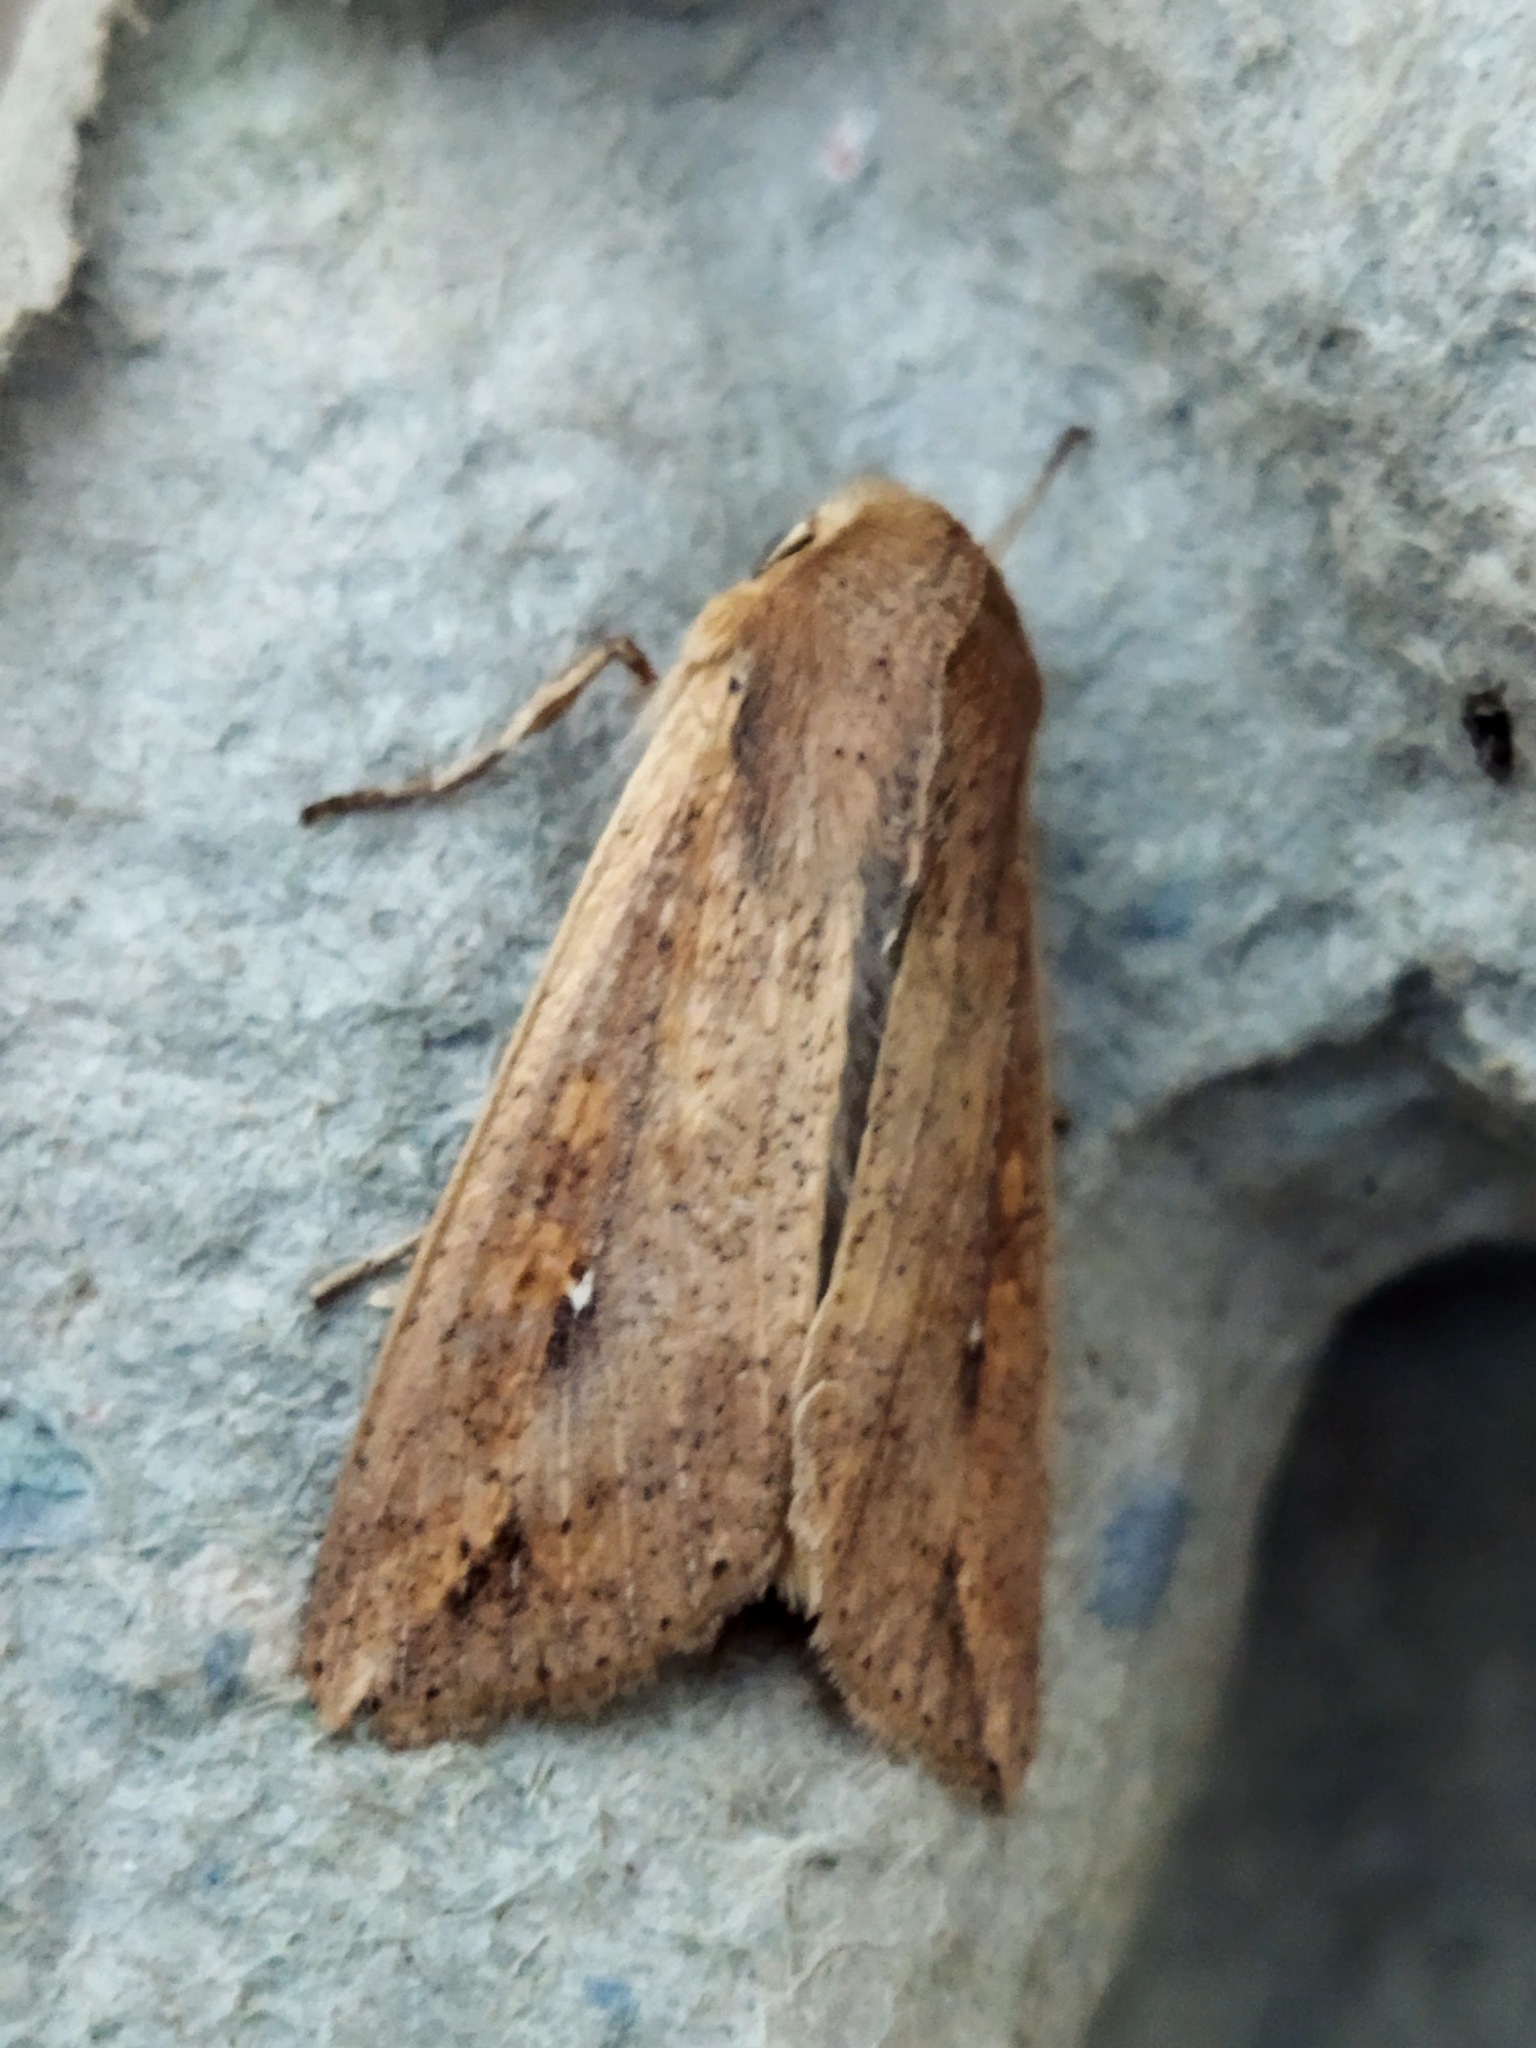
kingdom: Animalia
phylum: Arthropoda
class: Insecta
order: Lepidoptera
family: Noctuidae
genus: Mythimna
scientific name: Mythimna unipuncta
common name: White-speck
